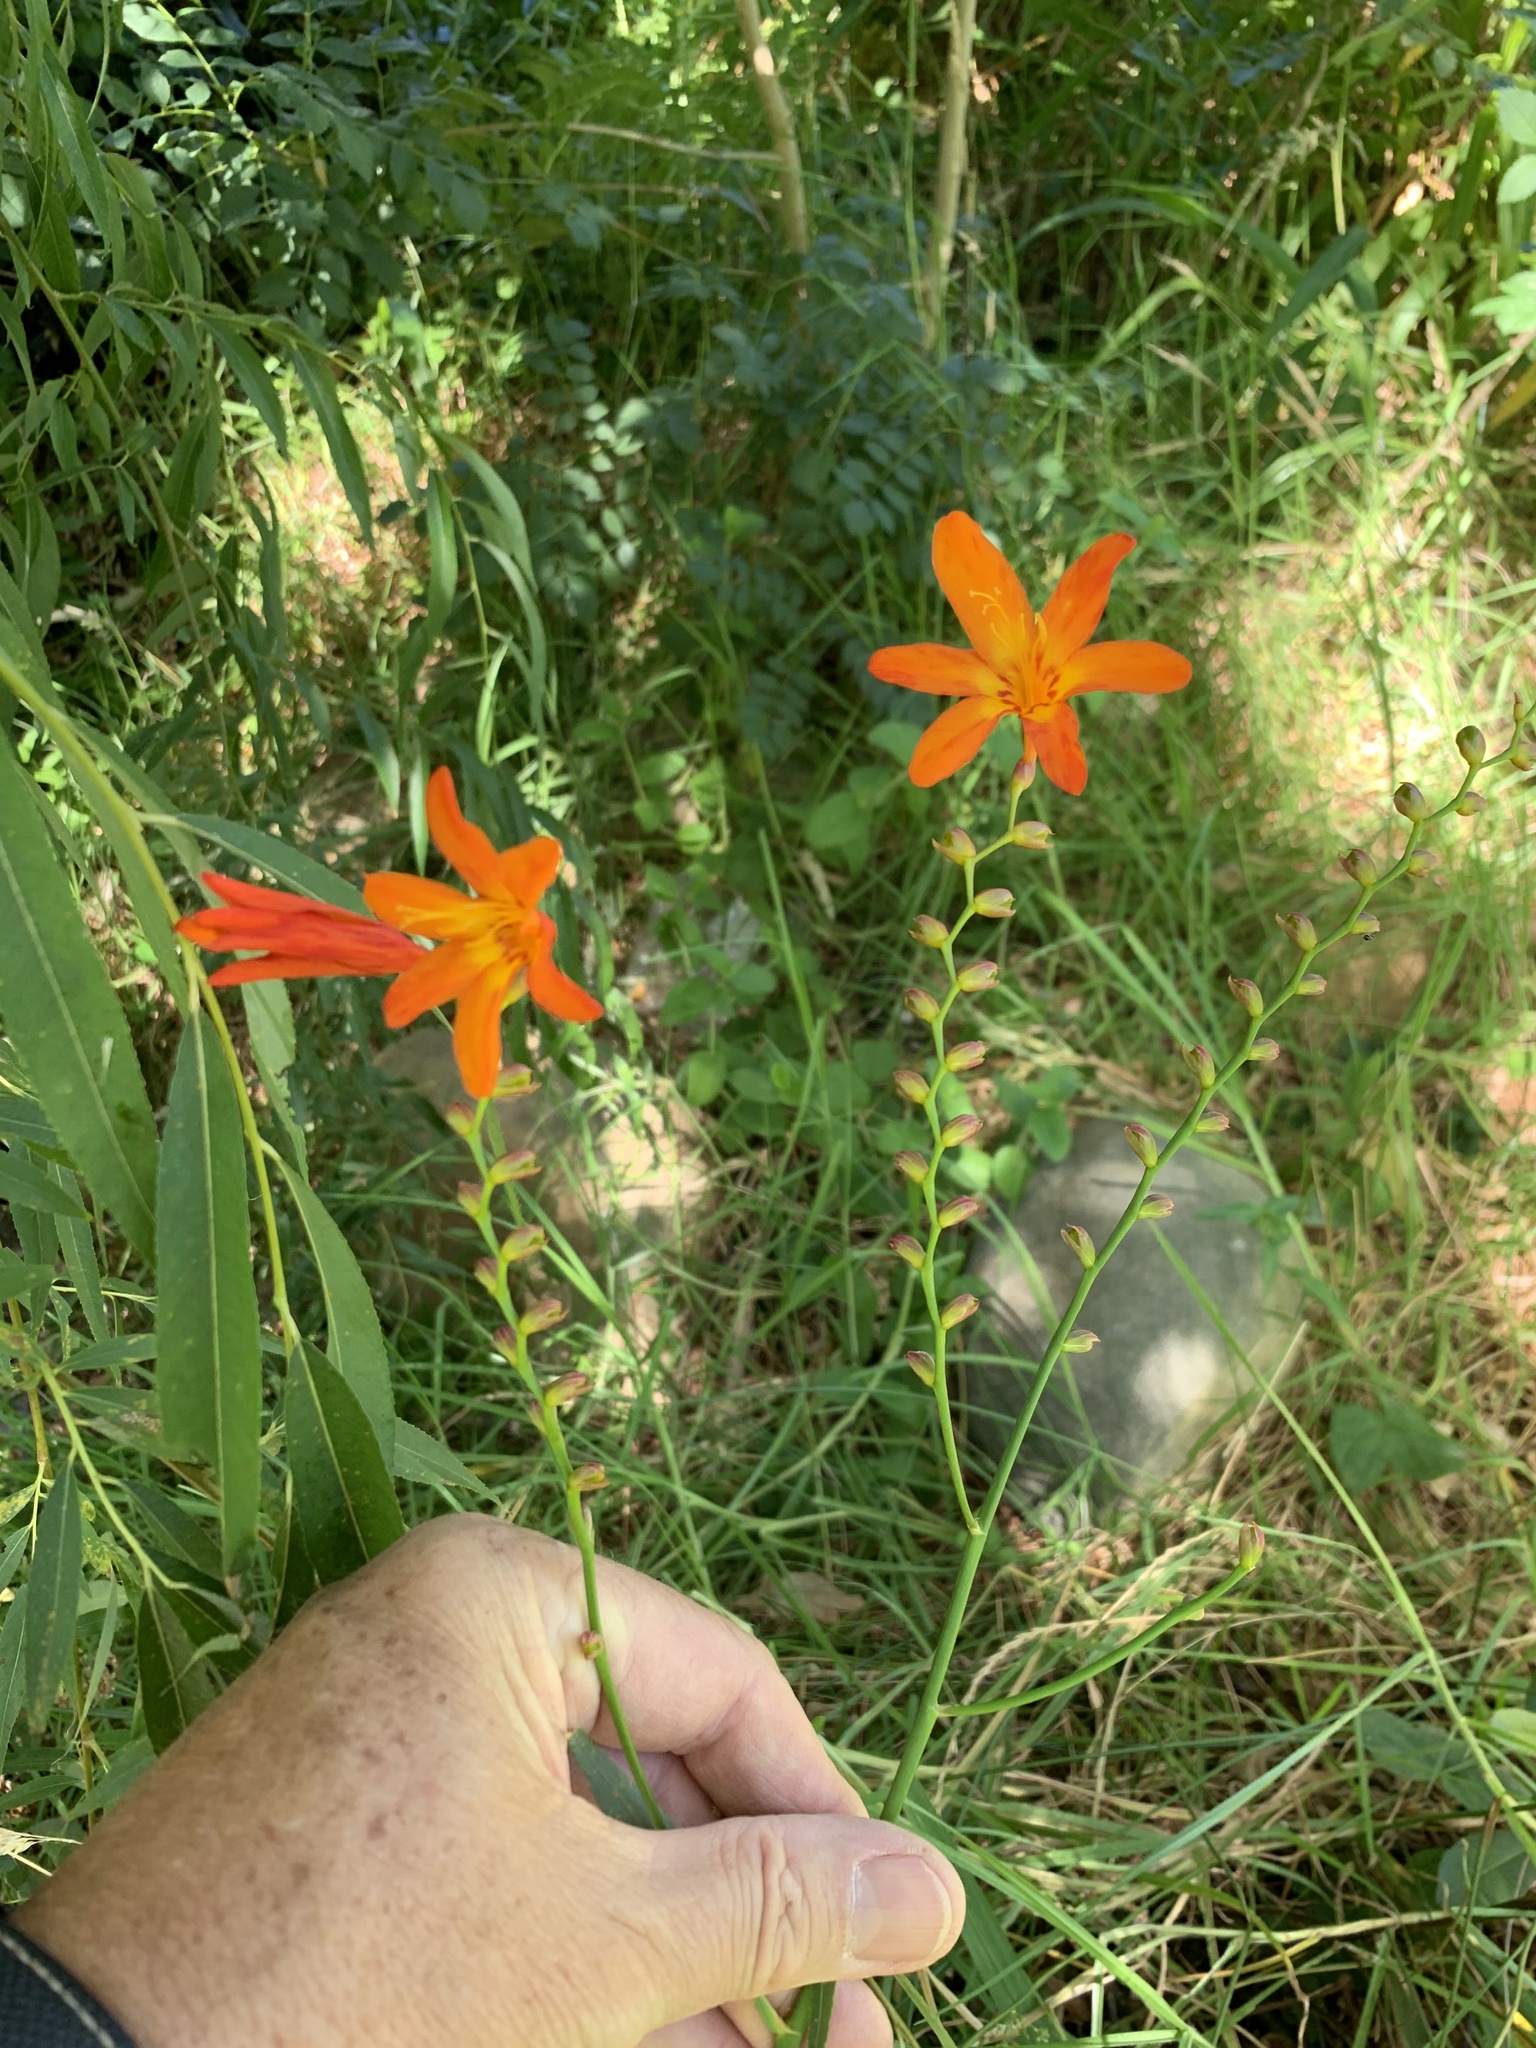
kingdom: Plantae
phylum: Tracheophyta
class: Liliopsida
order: Asparagales
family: Iridaceae
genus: Crocosmia
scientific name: Crocosmia crocosmiiflora
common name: Montbretia
